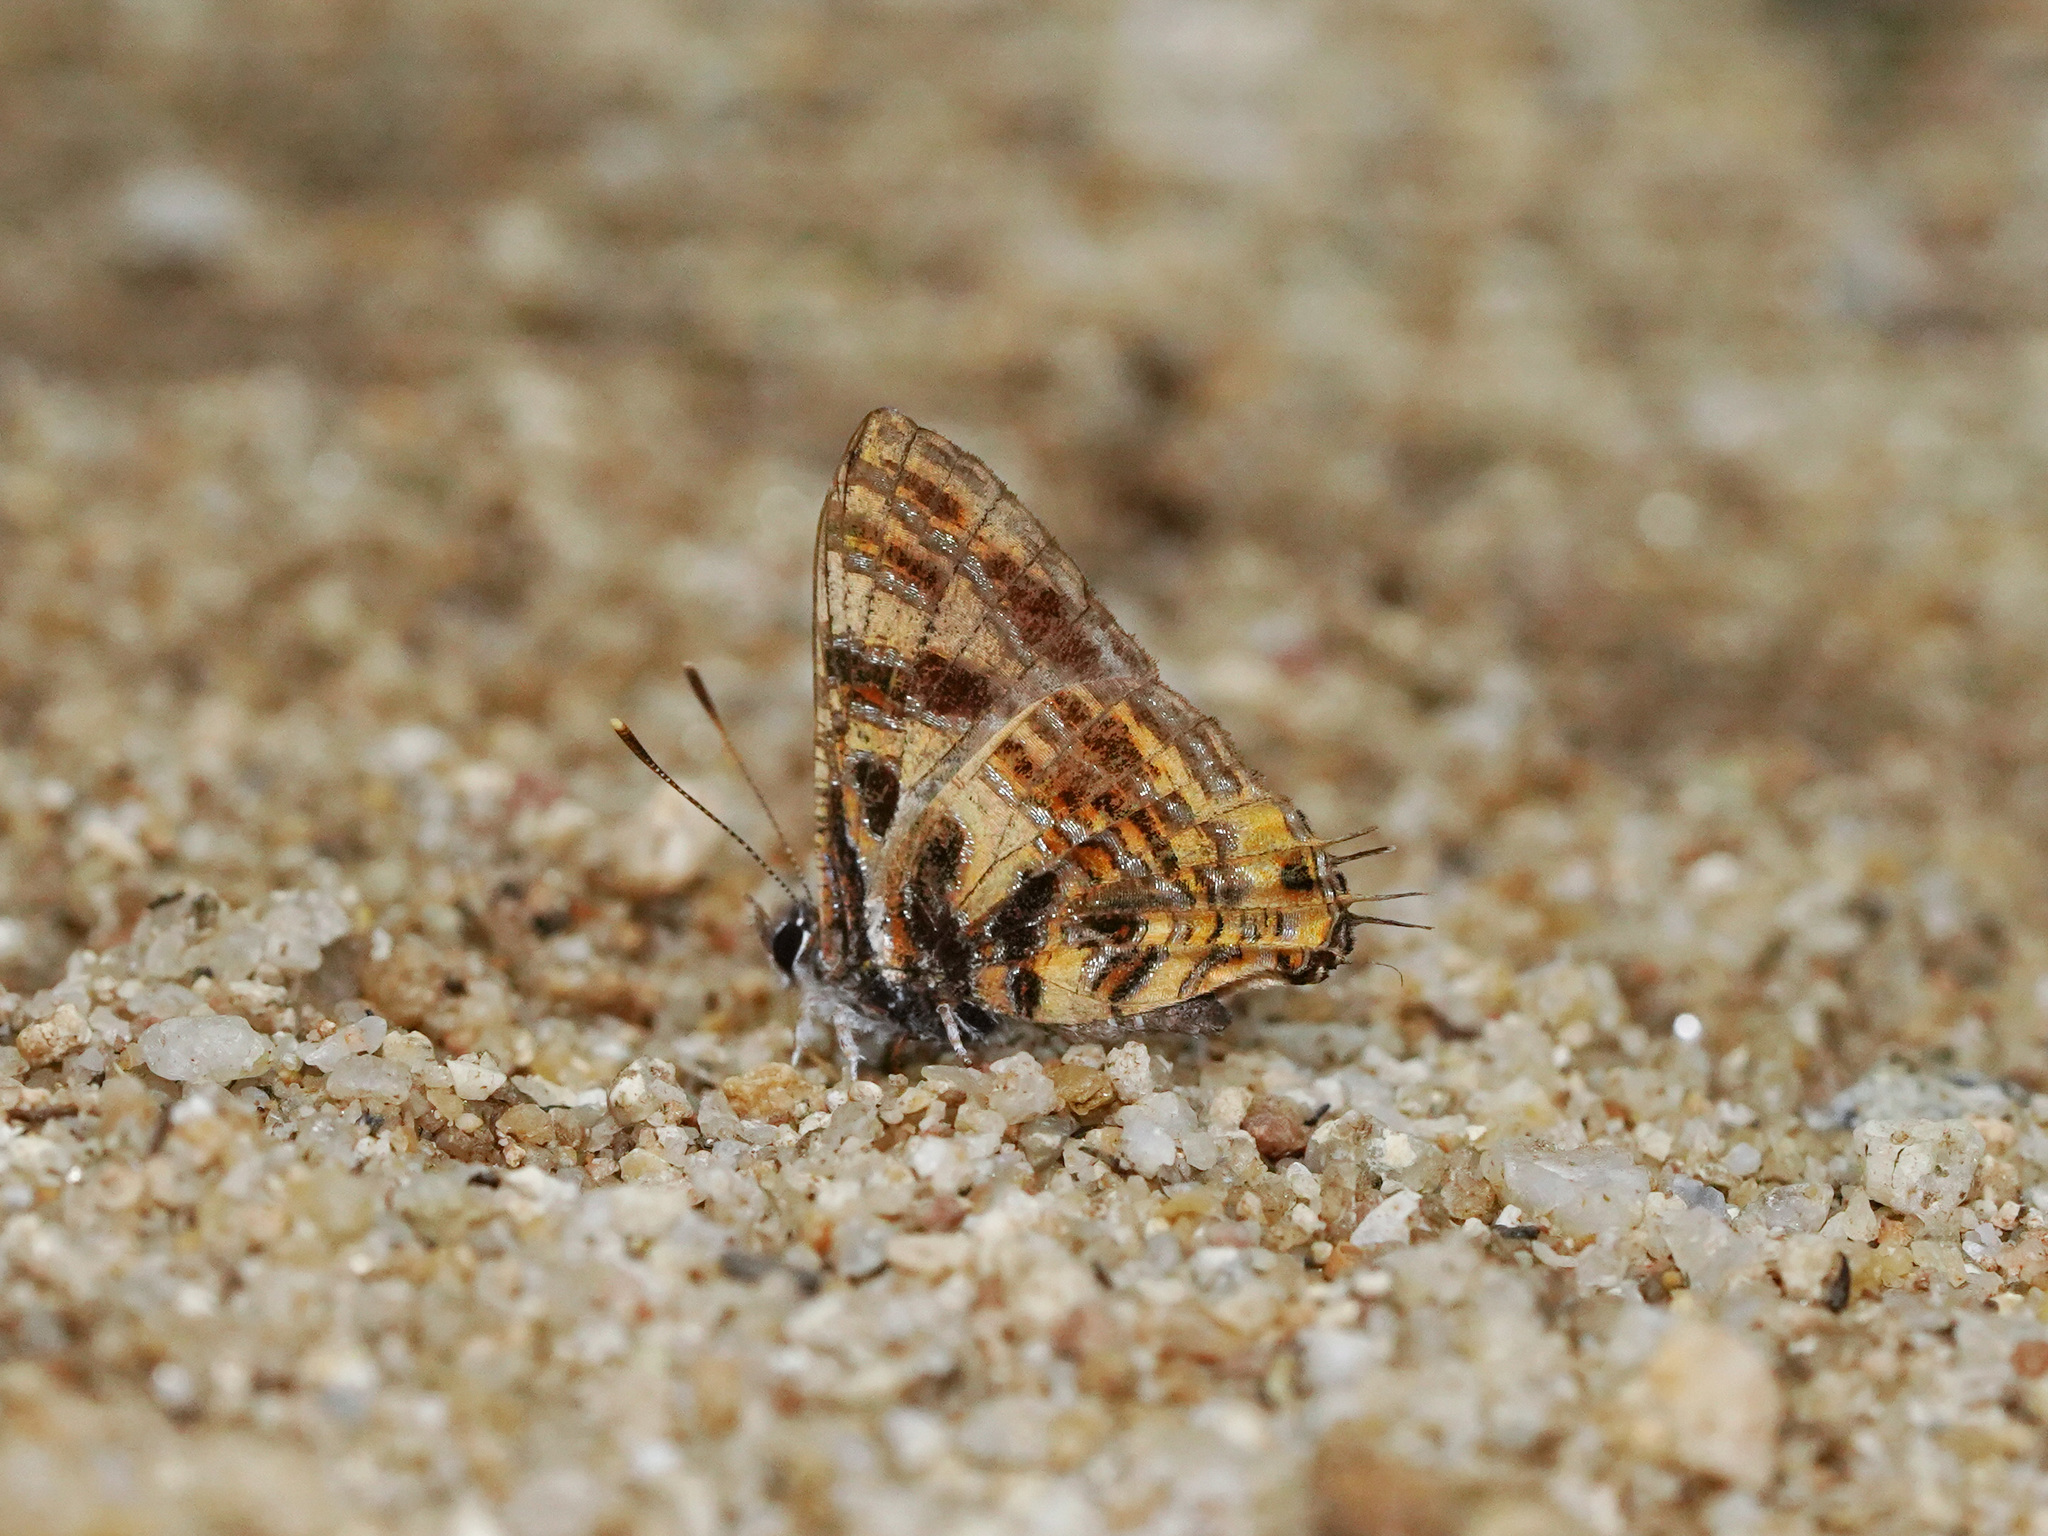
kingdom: Animalia
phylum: Arthropoda
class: Insecta
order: Lepidoptera
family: Lycaenidae
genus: Catapaecilma
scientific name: Catapaecilma subochrea
